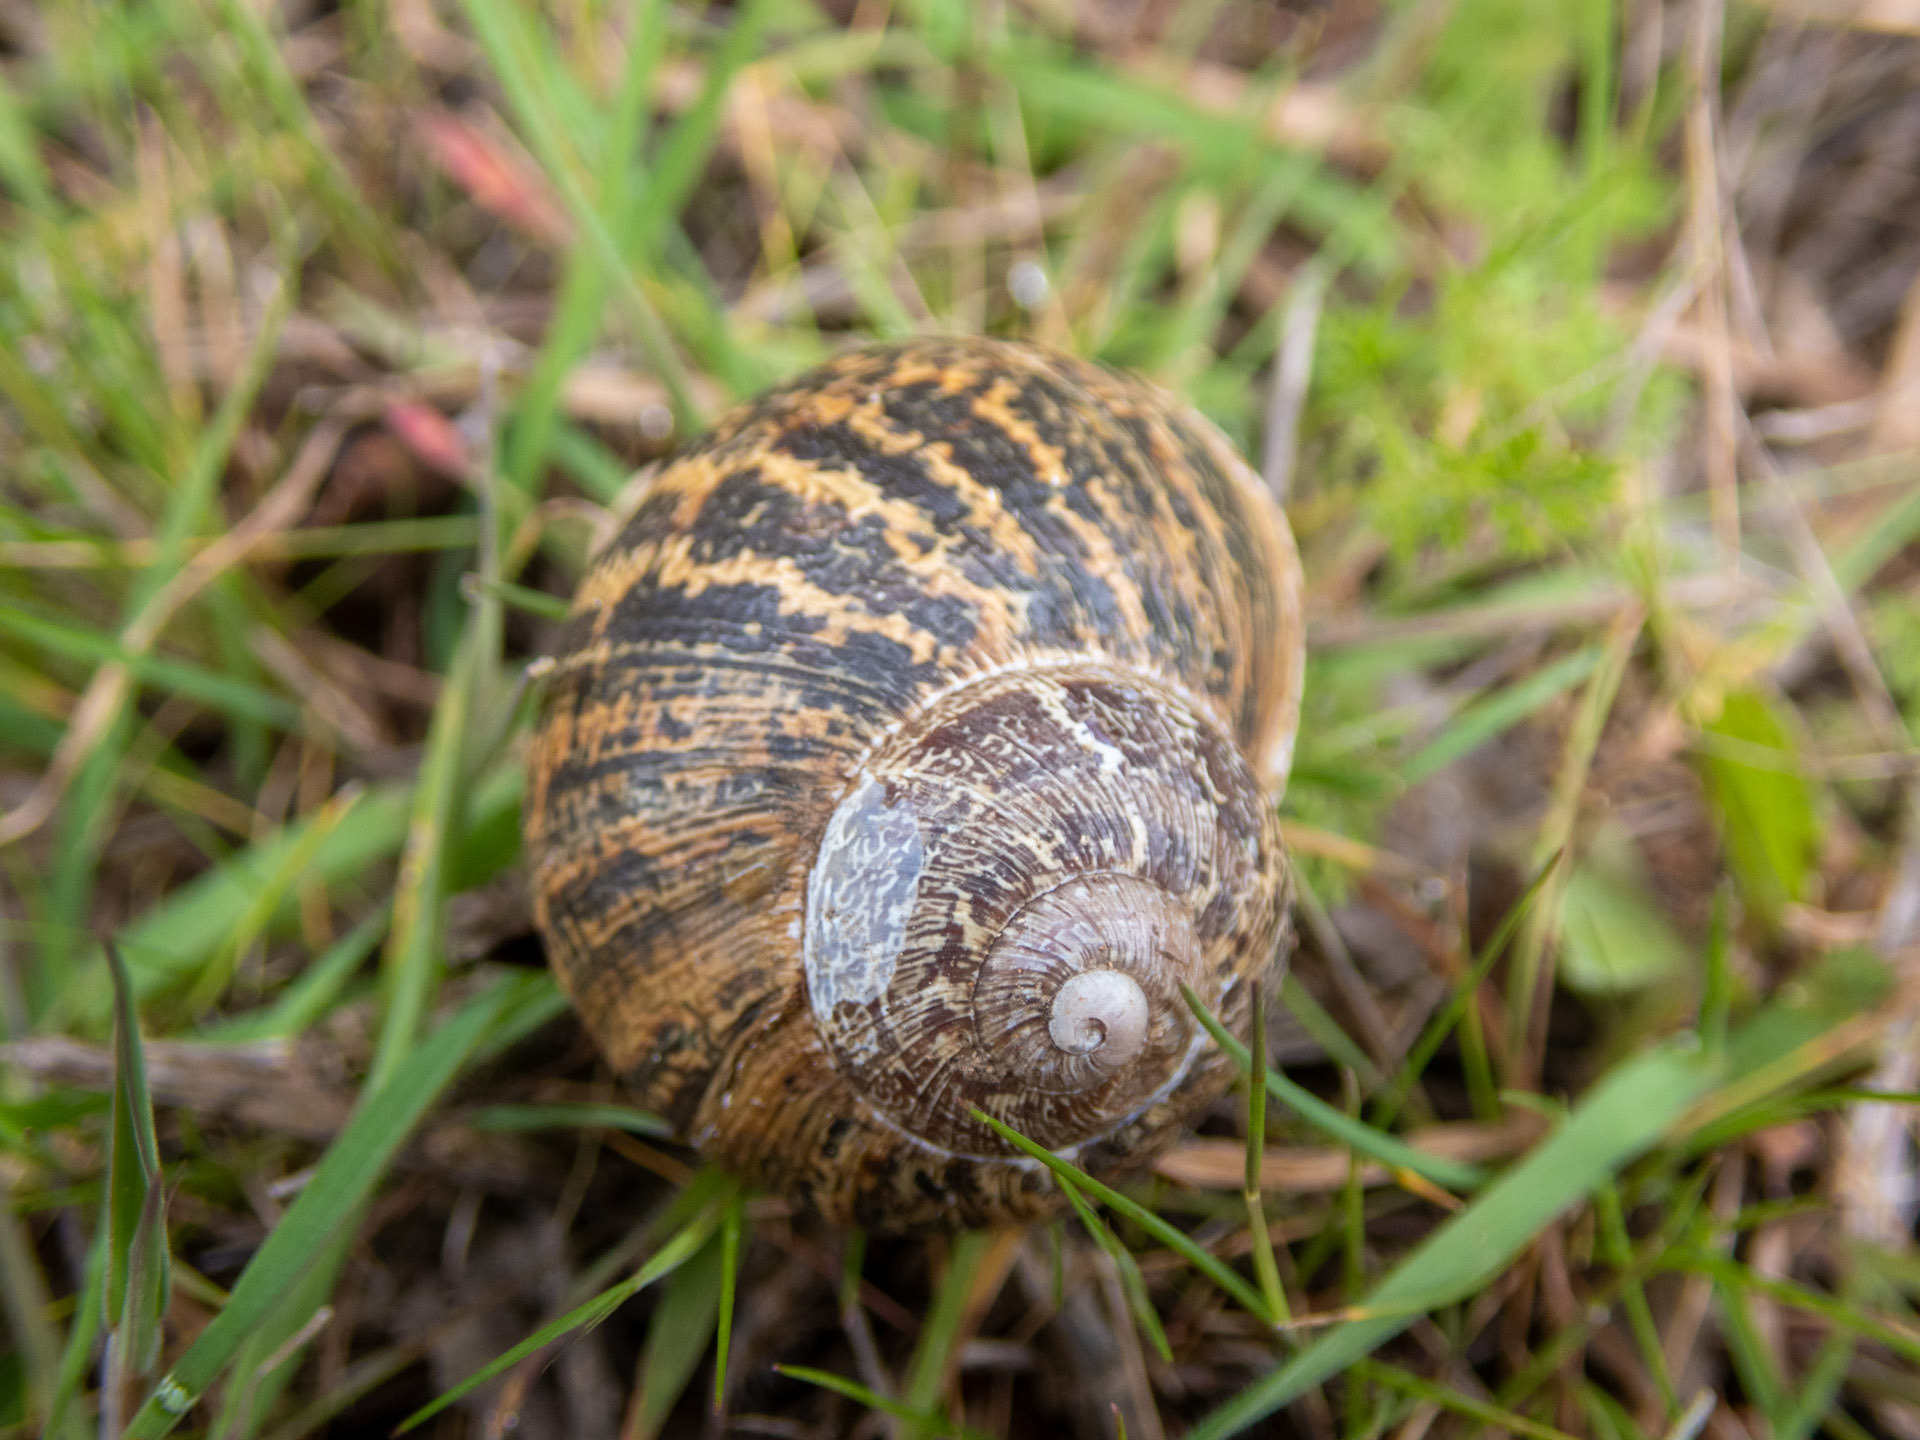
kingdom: Animalia
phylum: Mollusca
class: Gastropoda
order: Stylommatophora
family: Helicidae
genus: Cornu
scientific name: Cornu aspersum
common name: Brown garden snail
